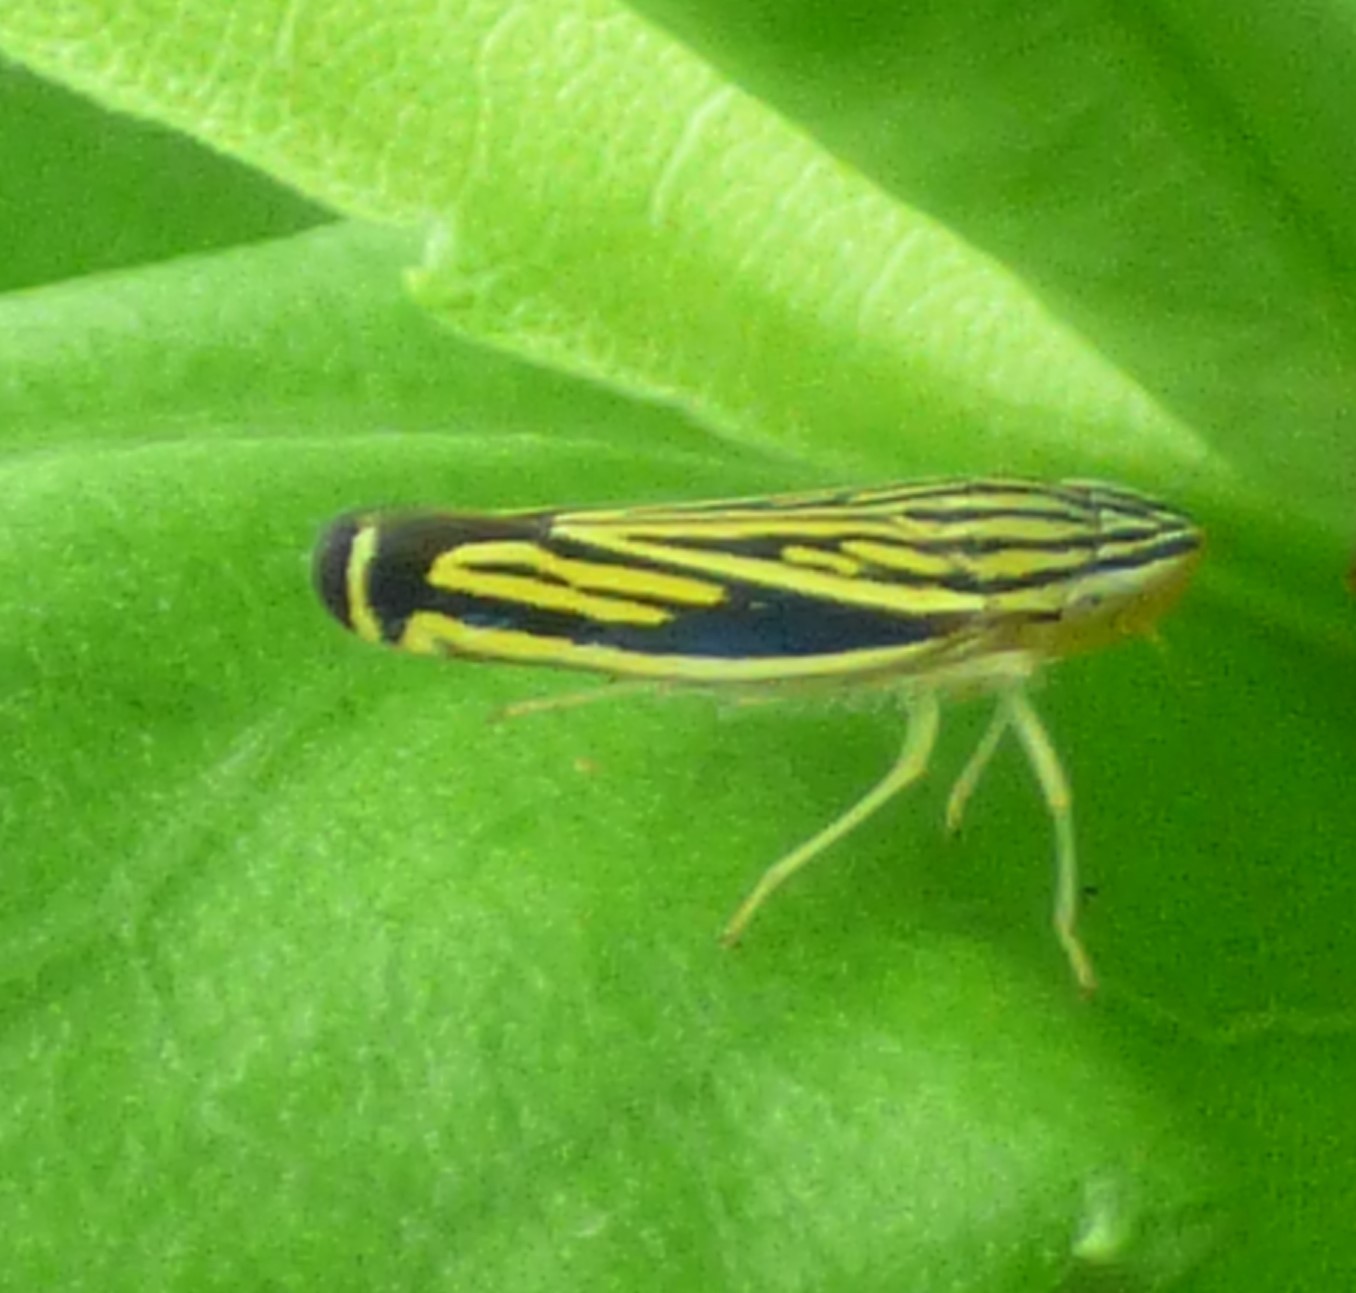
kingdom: Animalia
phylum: Arthropoda
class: Insecta
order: Hemiptera
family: Cicadellidae
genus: Sibovia
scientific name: Sibovia occatoria
